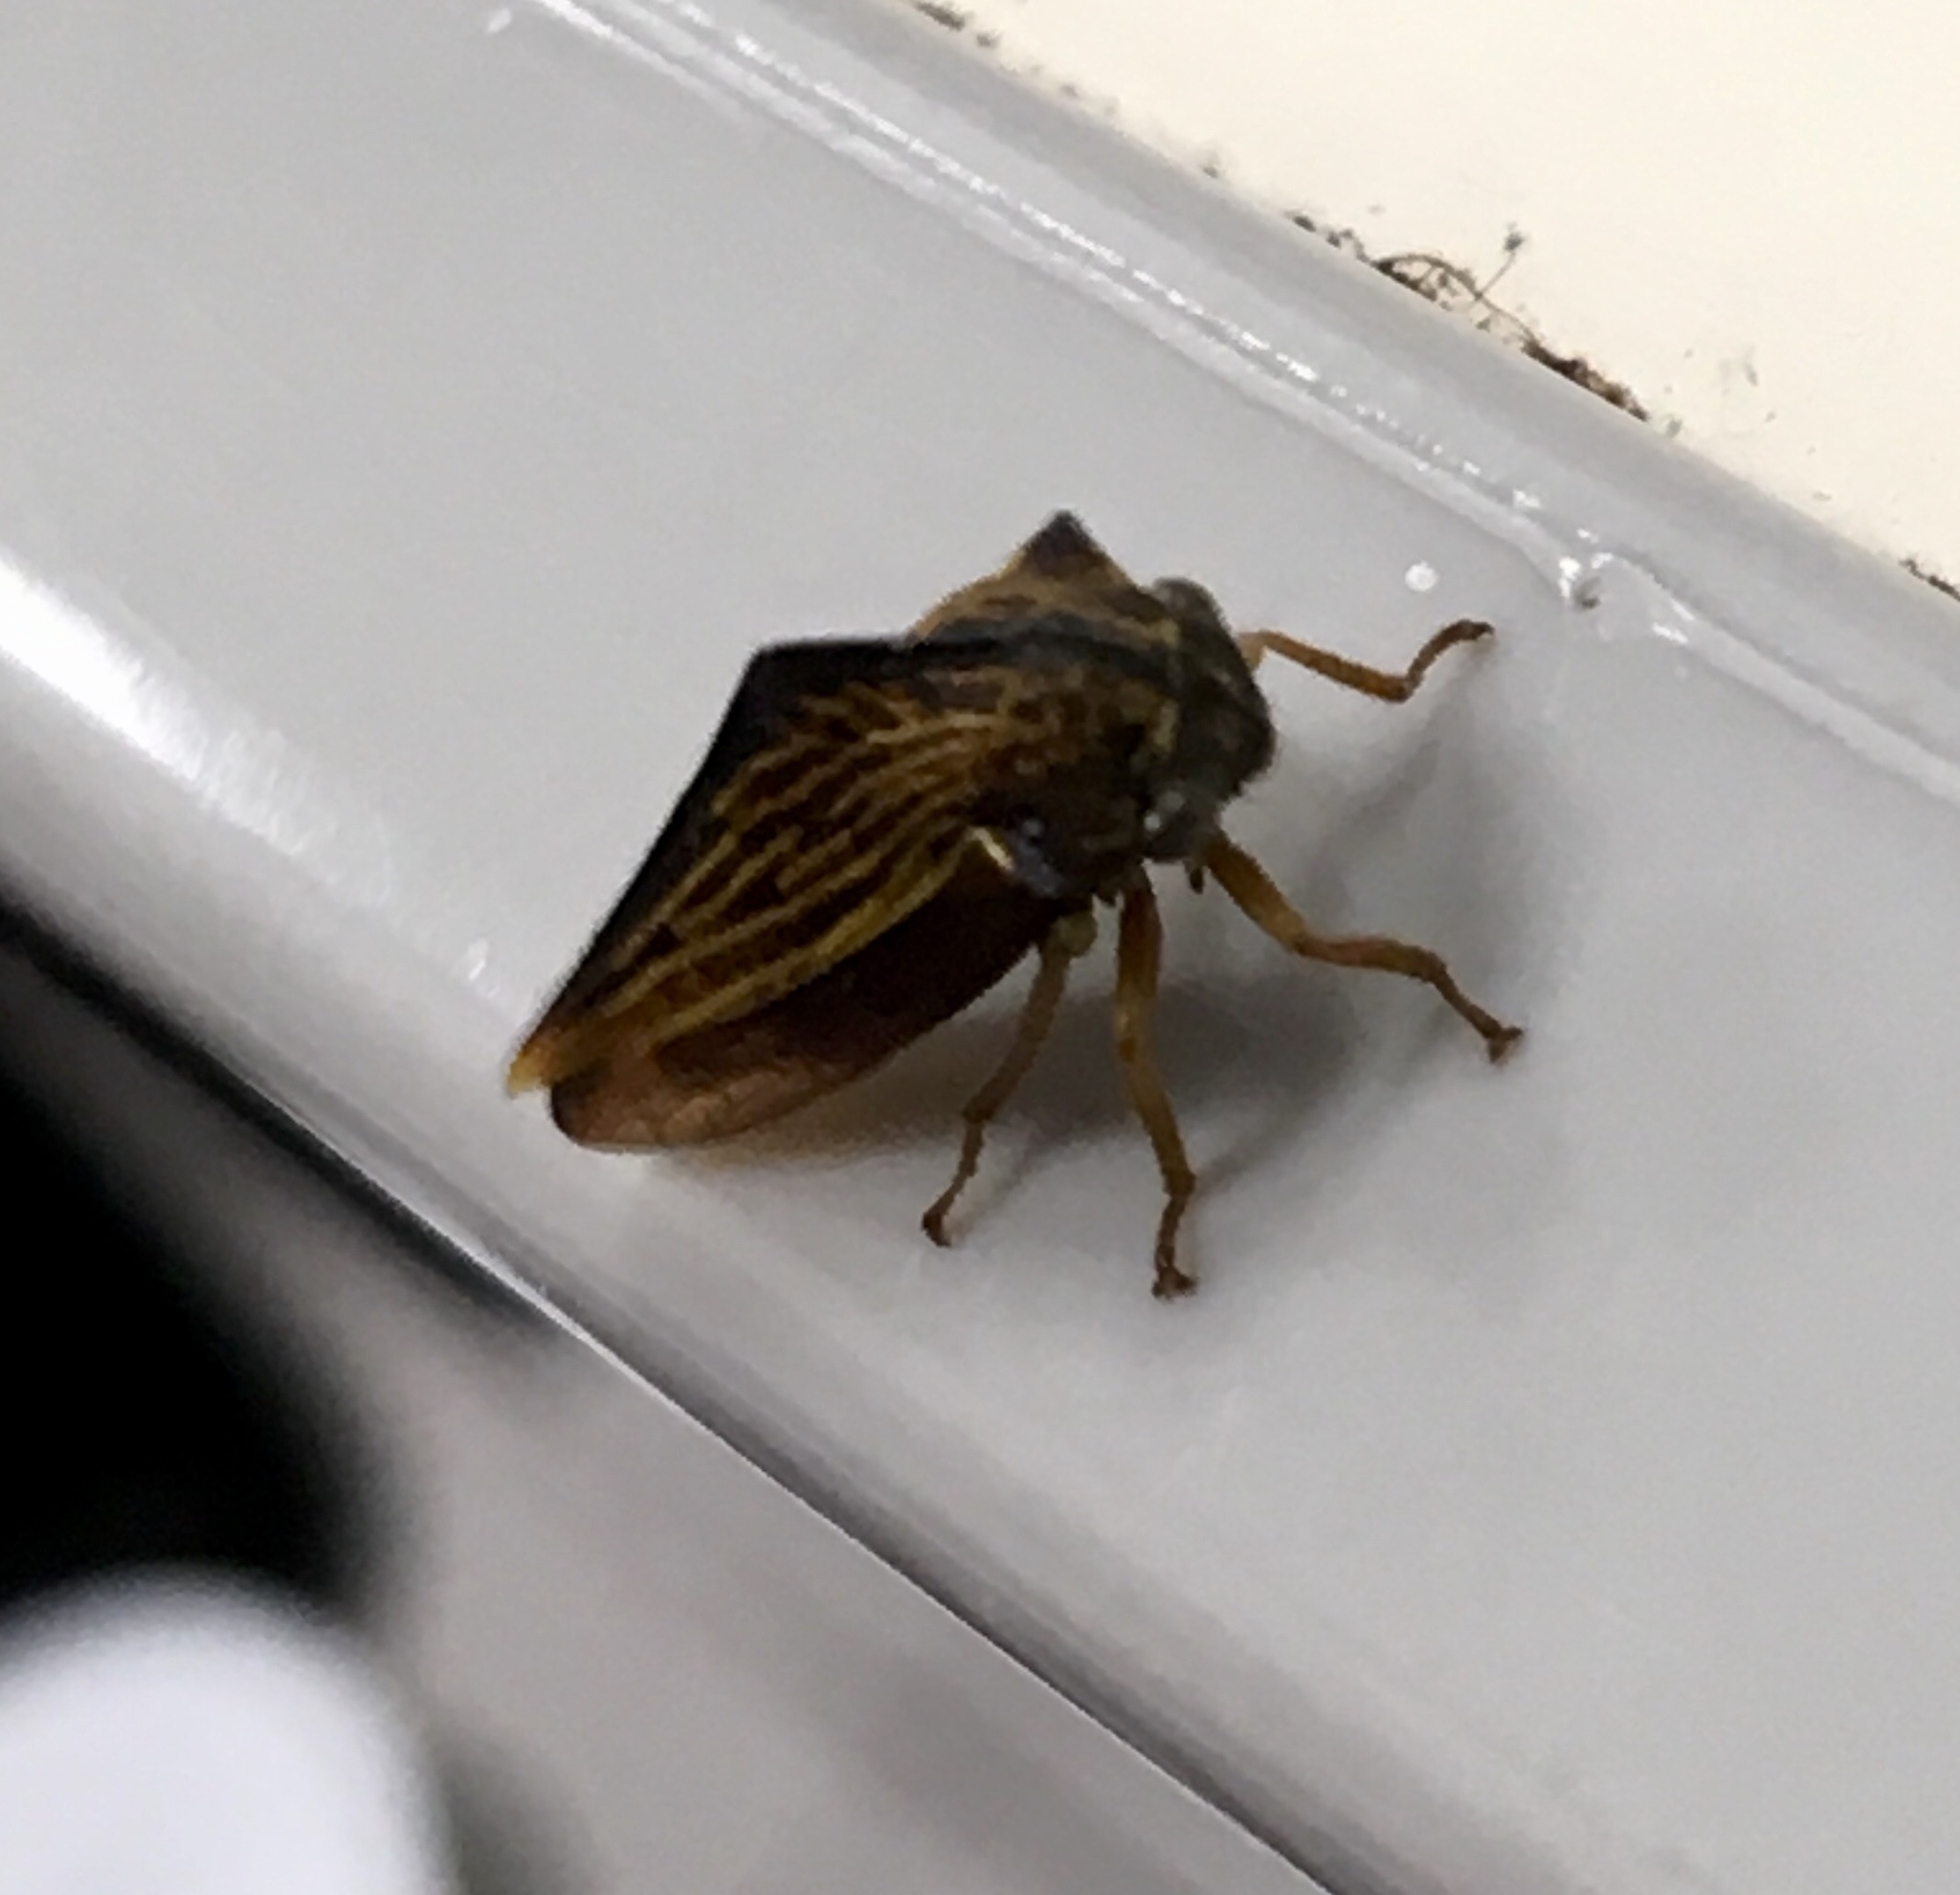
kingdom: Animalia
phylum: Arthropoda
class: Insecta
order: Hemiptera
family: Membracidae
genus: Ennya
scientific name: Ennya sobria
